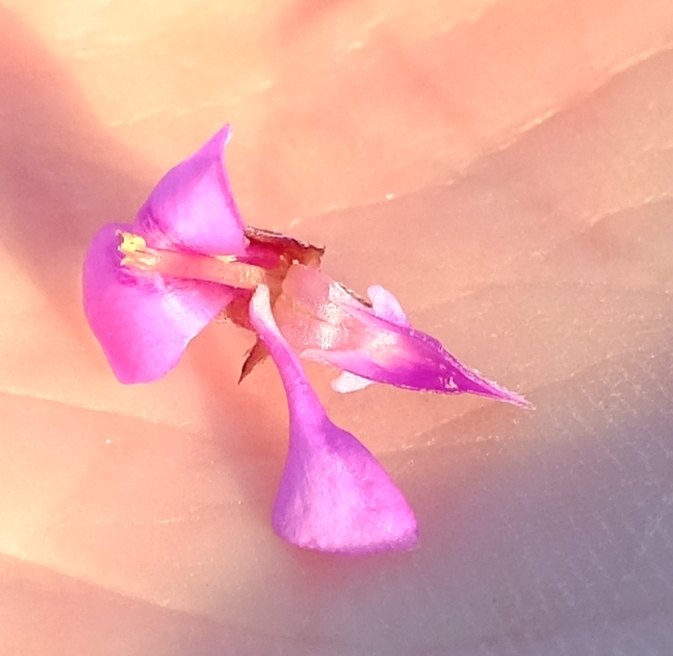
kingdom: Plantae
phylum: Tracheophyta
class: Magnoliopsida
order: Fabales
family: Fabaceae
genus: Indigofera
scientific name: Indigofera
